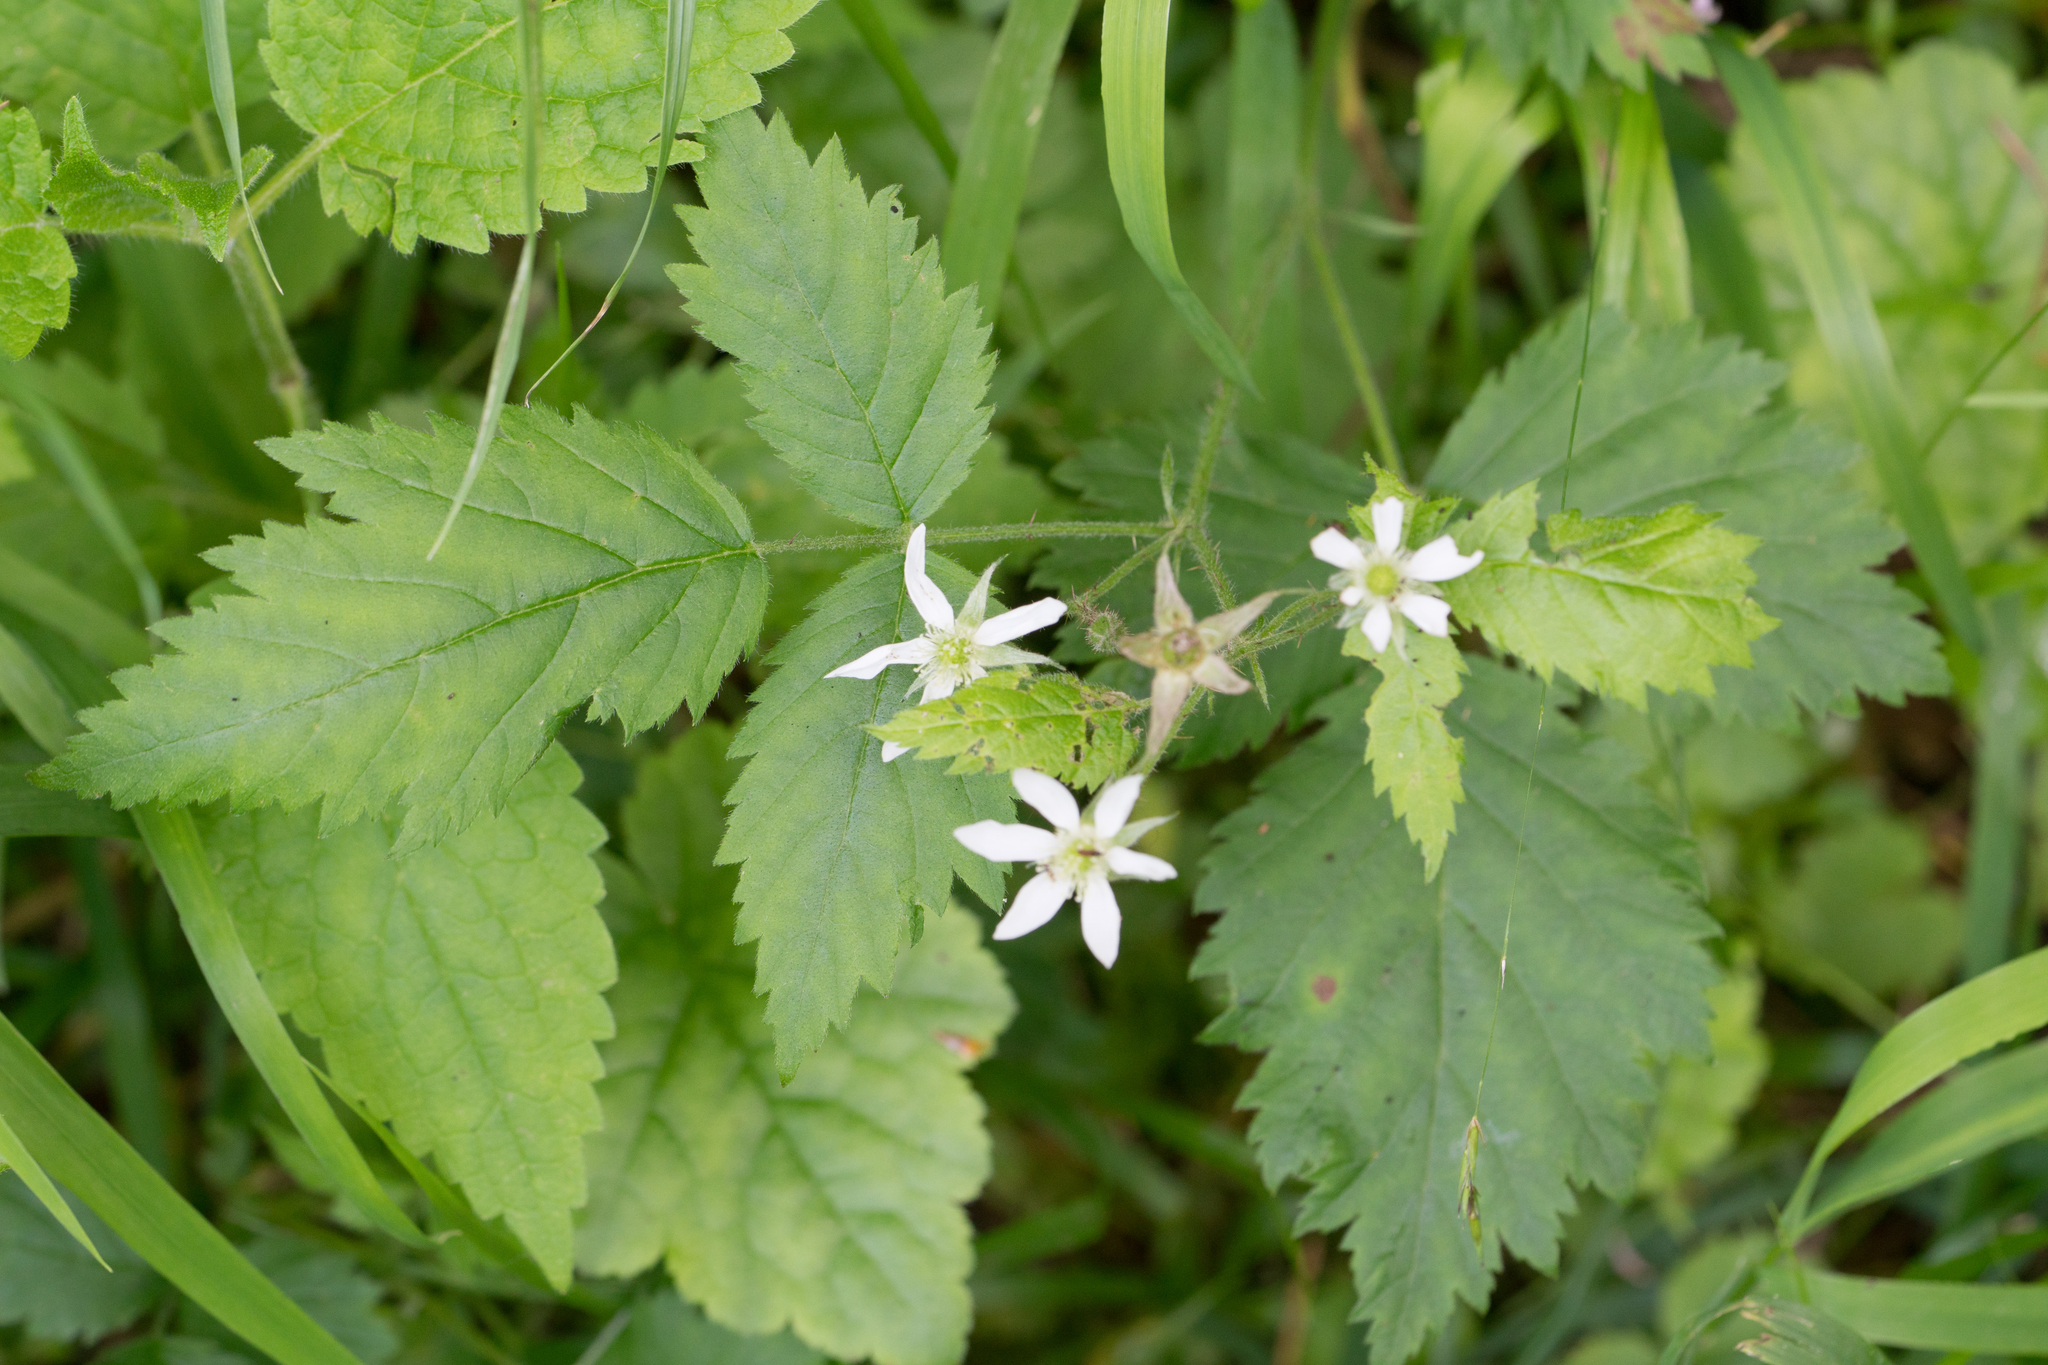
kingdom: Plantae
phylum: Tracheophyta
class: Magnoliopsida
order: Rosales
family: Rosaceae
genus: Rubus
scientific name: Rubus ursinus
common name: Pacific blackberry
